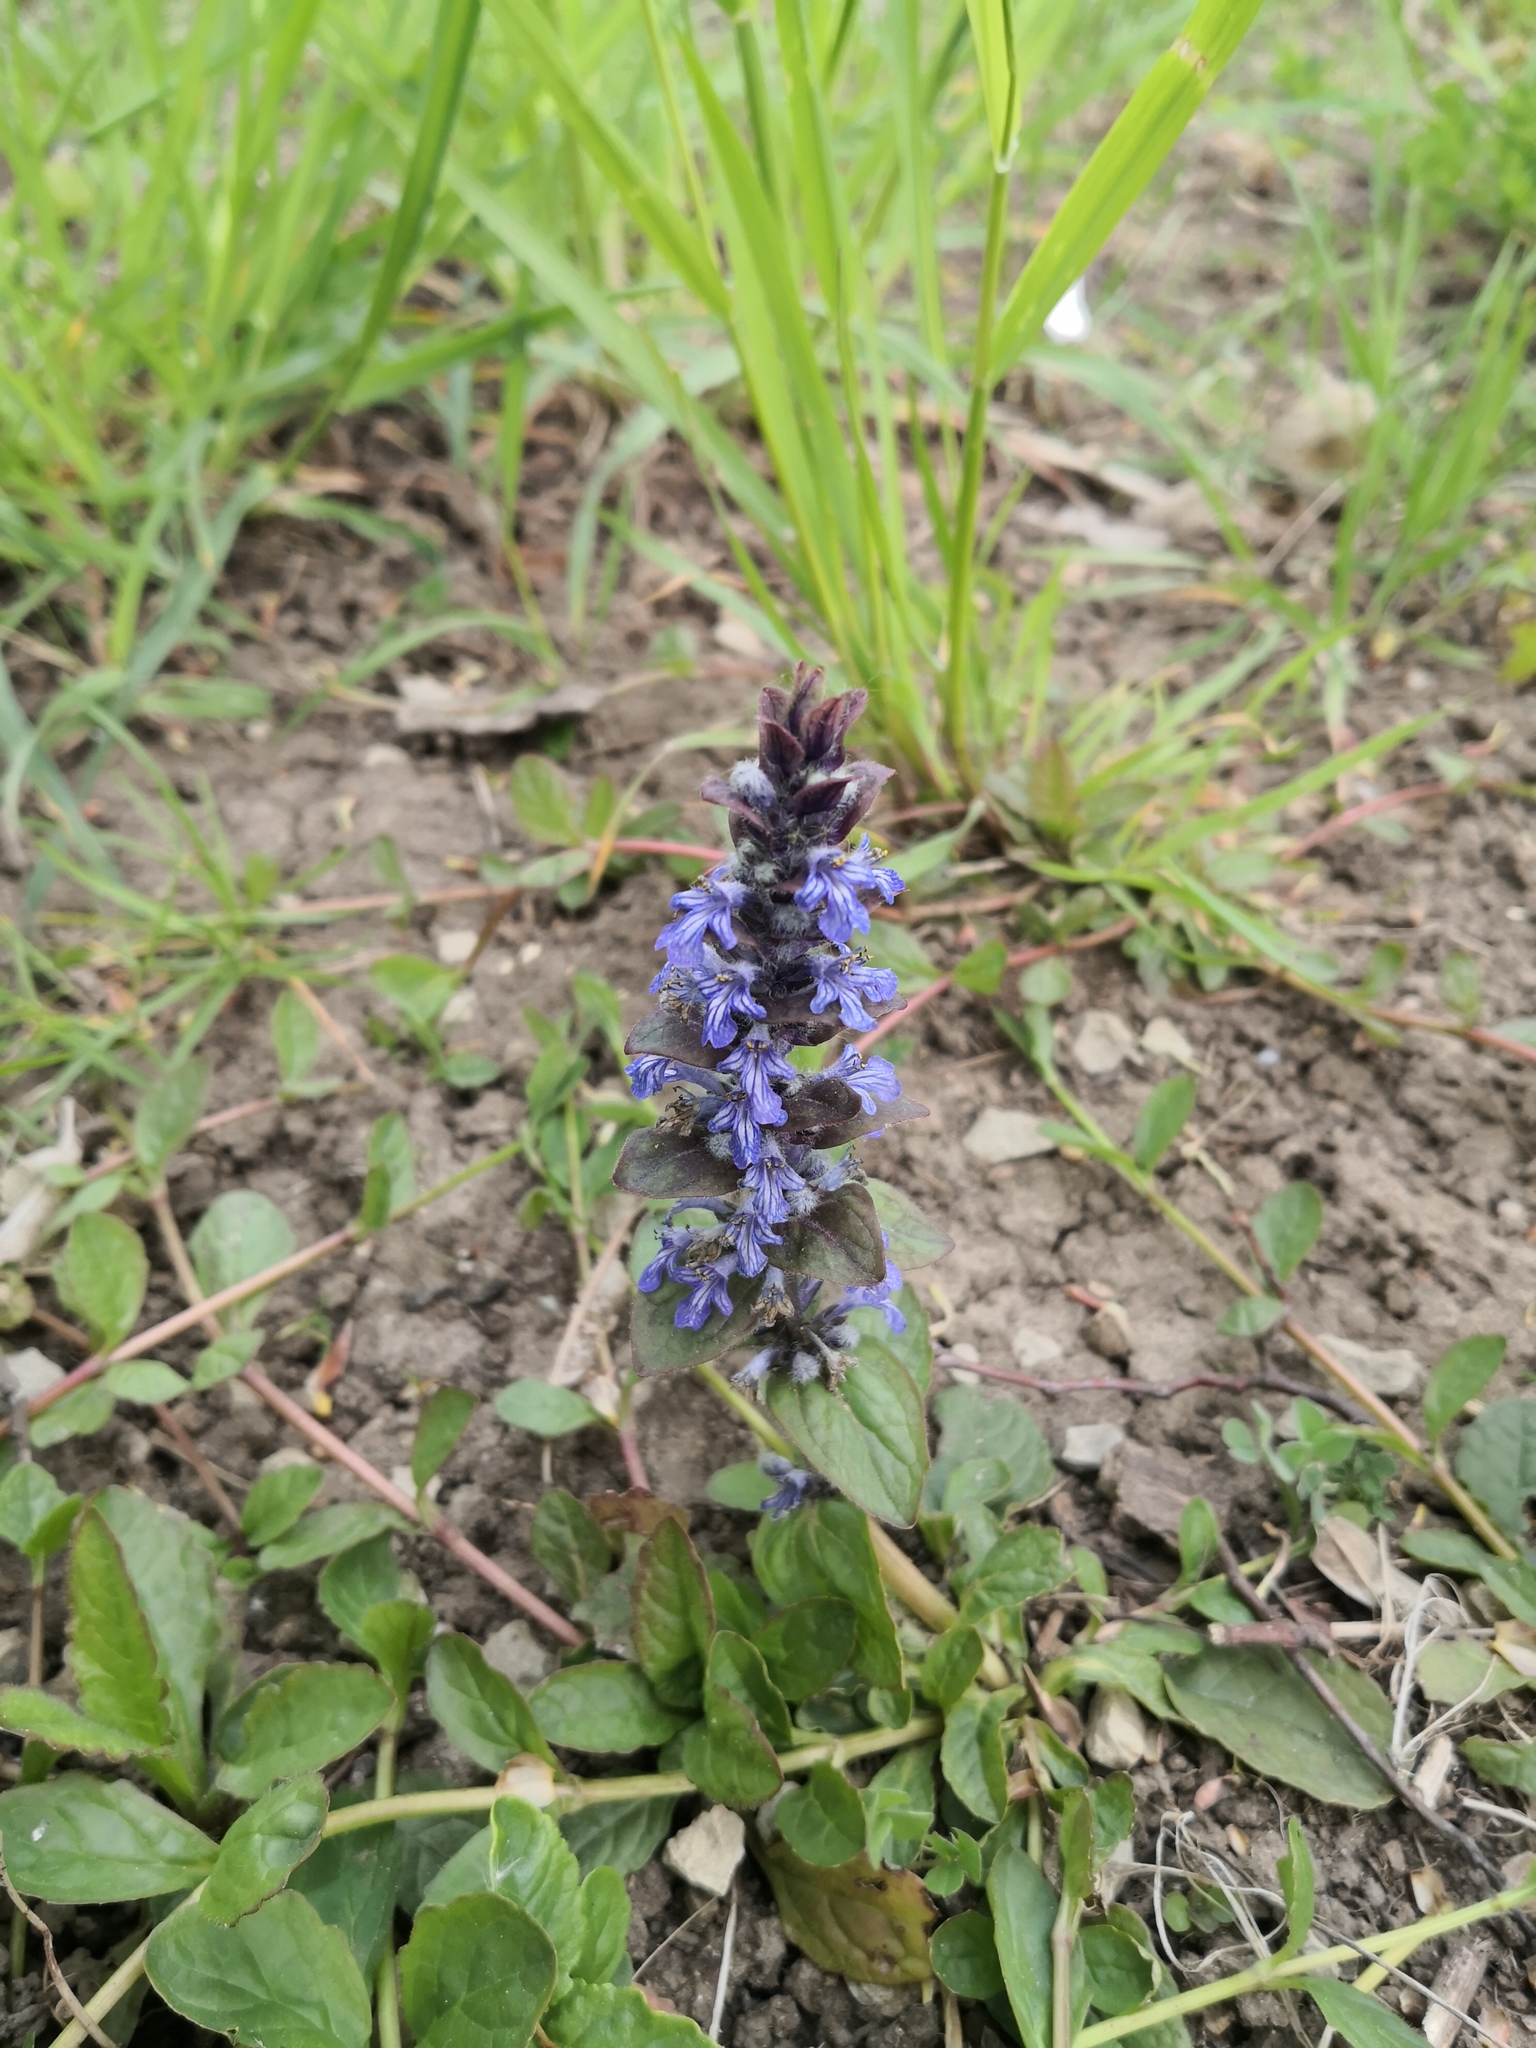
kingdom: Plantae
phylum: Tracheophyta
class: Magnoliopsida
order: Lamiales
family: Lamiaceae
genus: Ajuga
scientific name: Ajuga reptans
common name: Bugle
